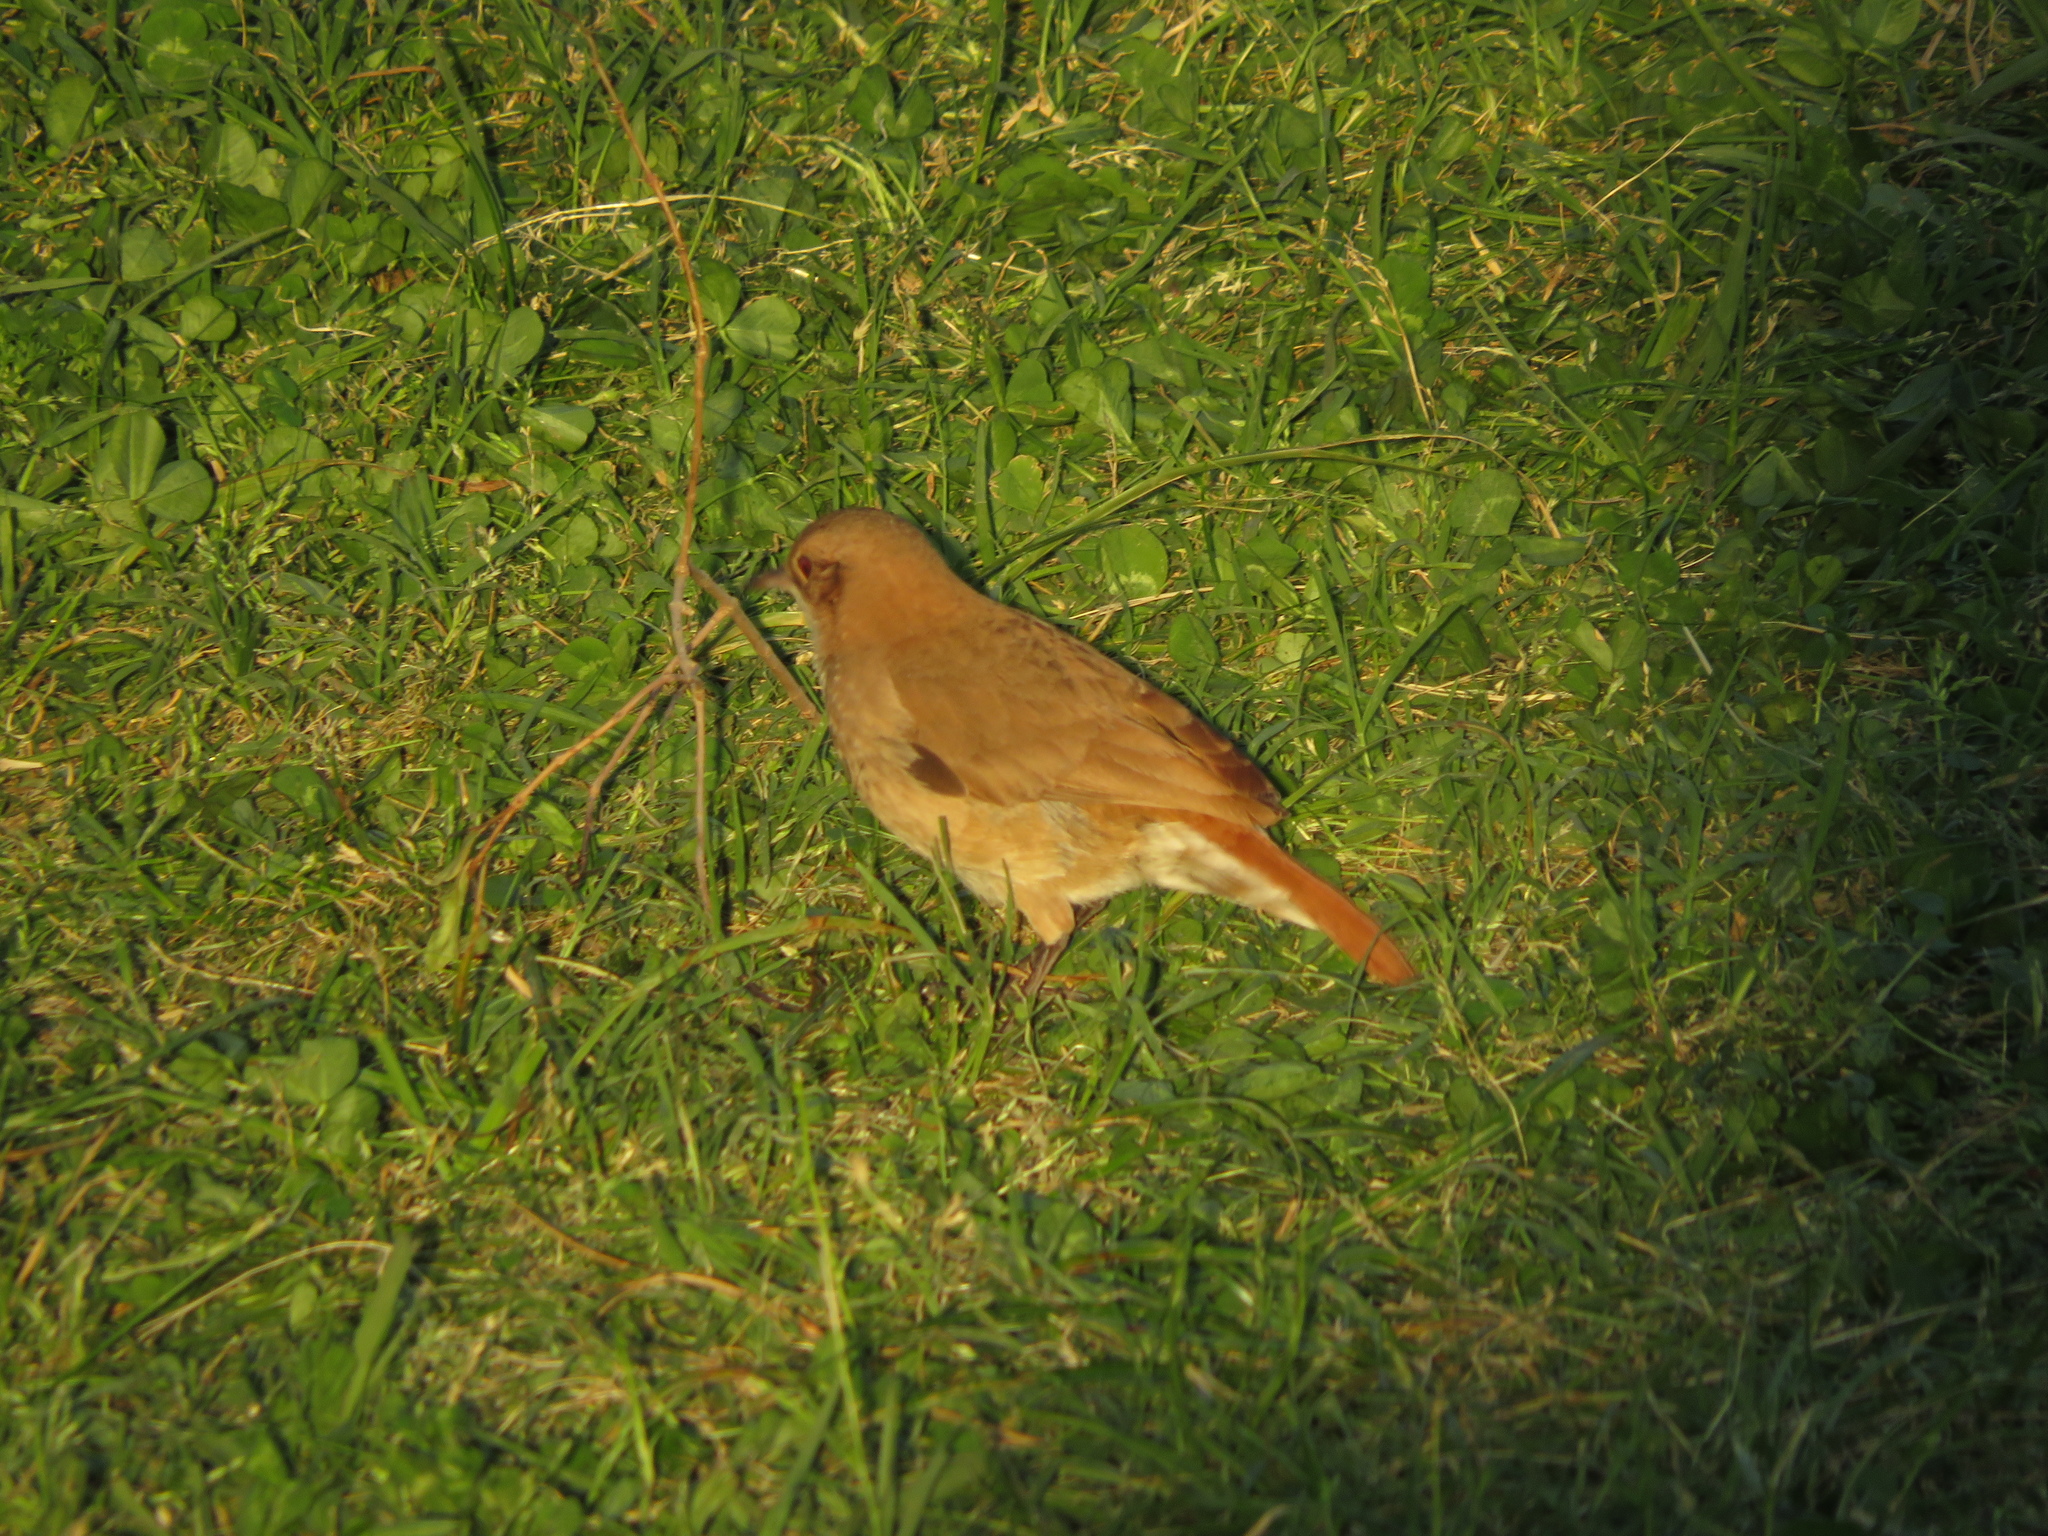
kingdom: Animalia
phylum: Chordata
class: Aves
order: Passeriformes
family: Furnariidae
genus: Furnarius
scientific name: Furnarius rufus
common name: Rufous hornero
